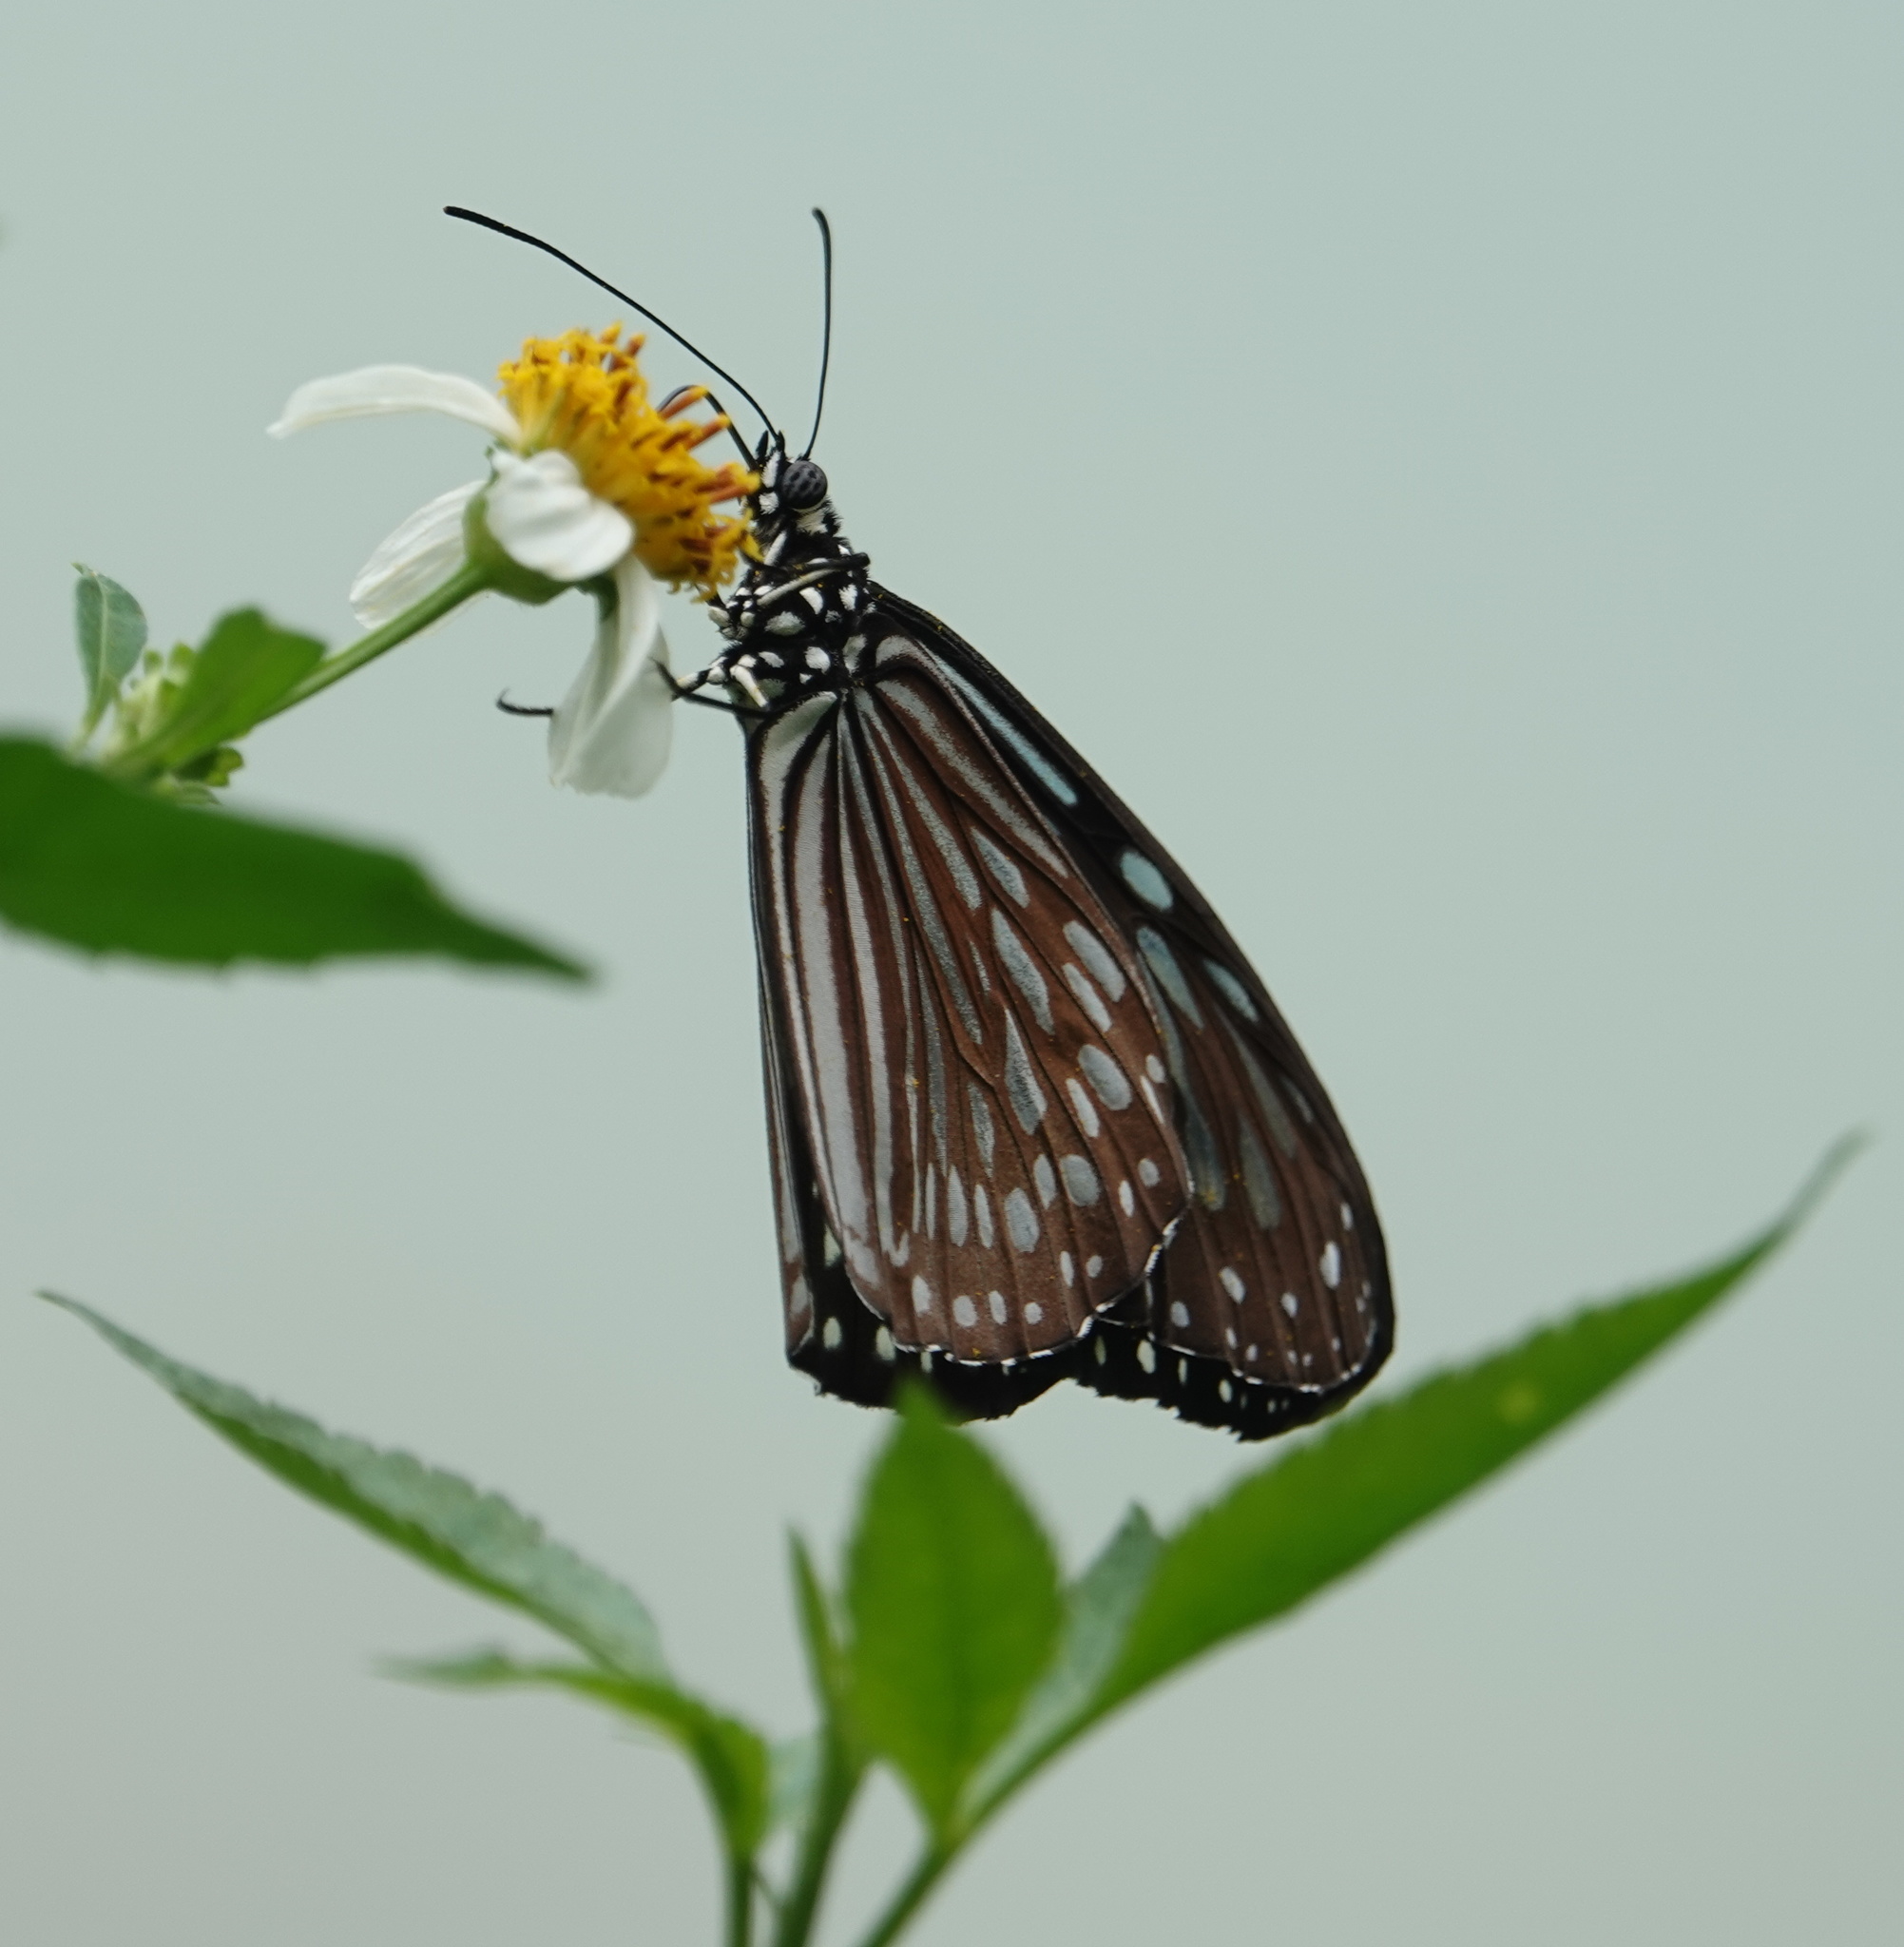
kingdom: Animalia
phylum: Arthropoda
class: Insecta
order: Lepidoptera
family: Nymphalidae
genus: Ideopsis
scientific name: Ideopsis similis
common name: Ceylon blue glassy tiger
